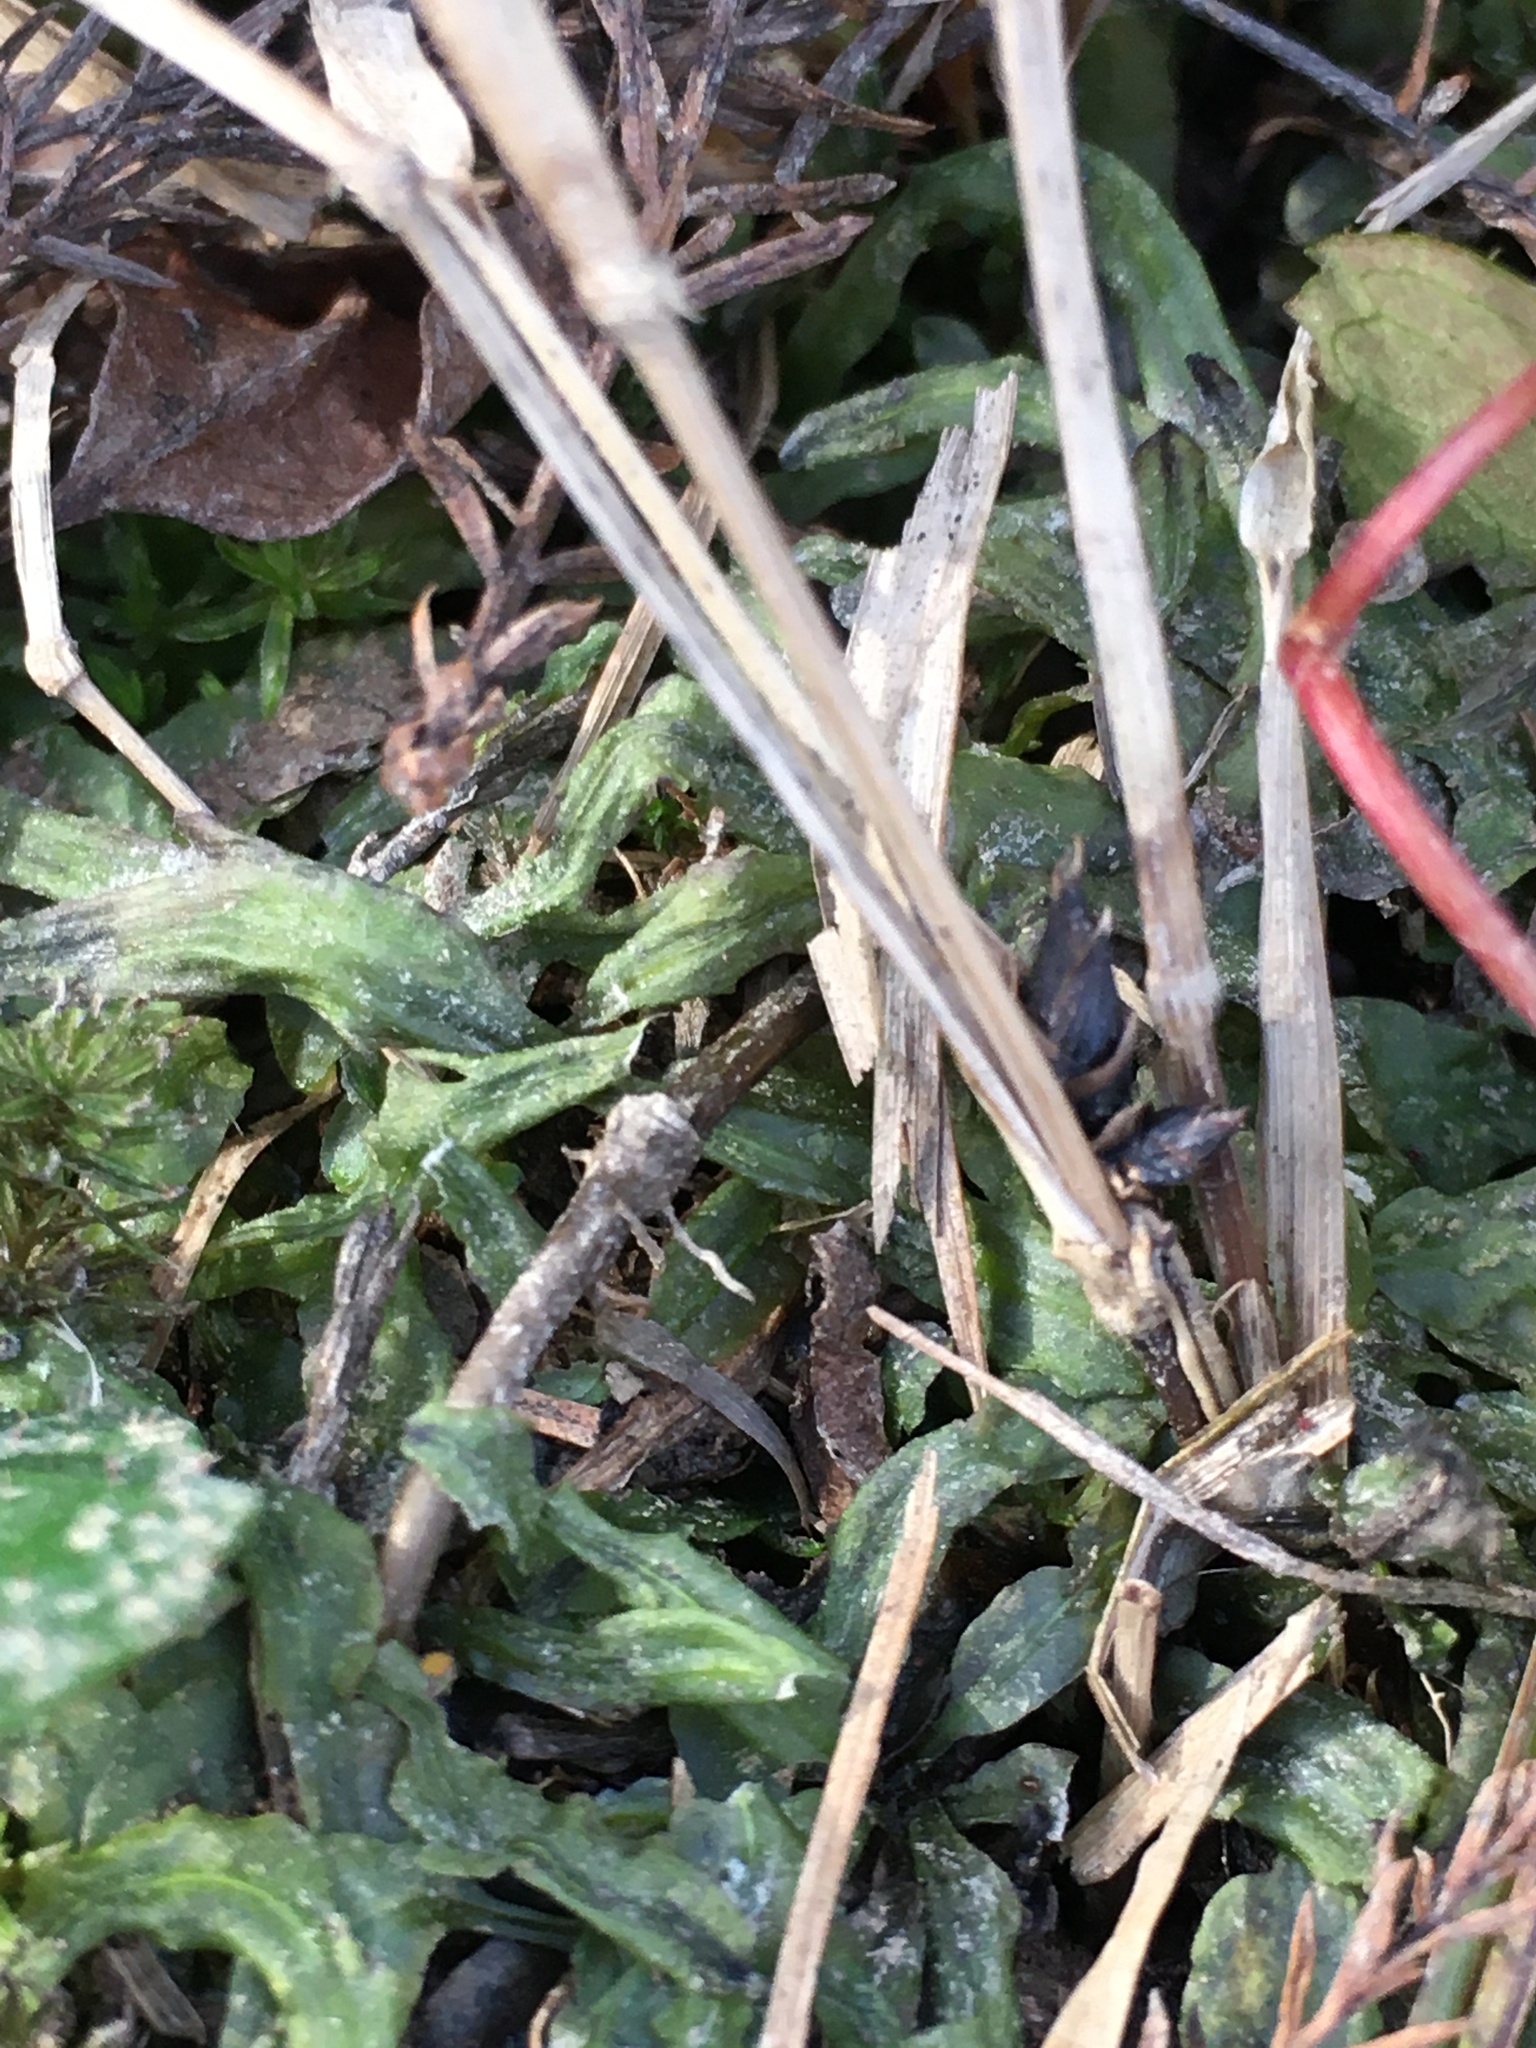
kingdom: Plantae
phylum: Marchantiophyta
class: Jungermanniopsida
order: Pallaviciniales
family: Pallaviciniaceae
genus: Pallavicinia
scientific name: Pallavicinia lyellii
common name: Veilwort
